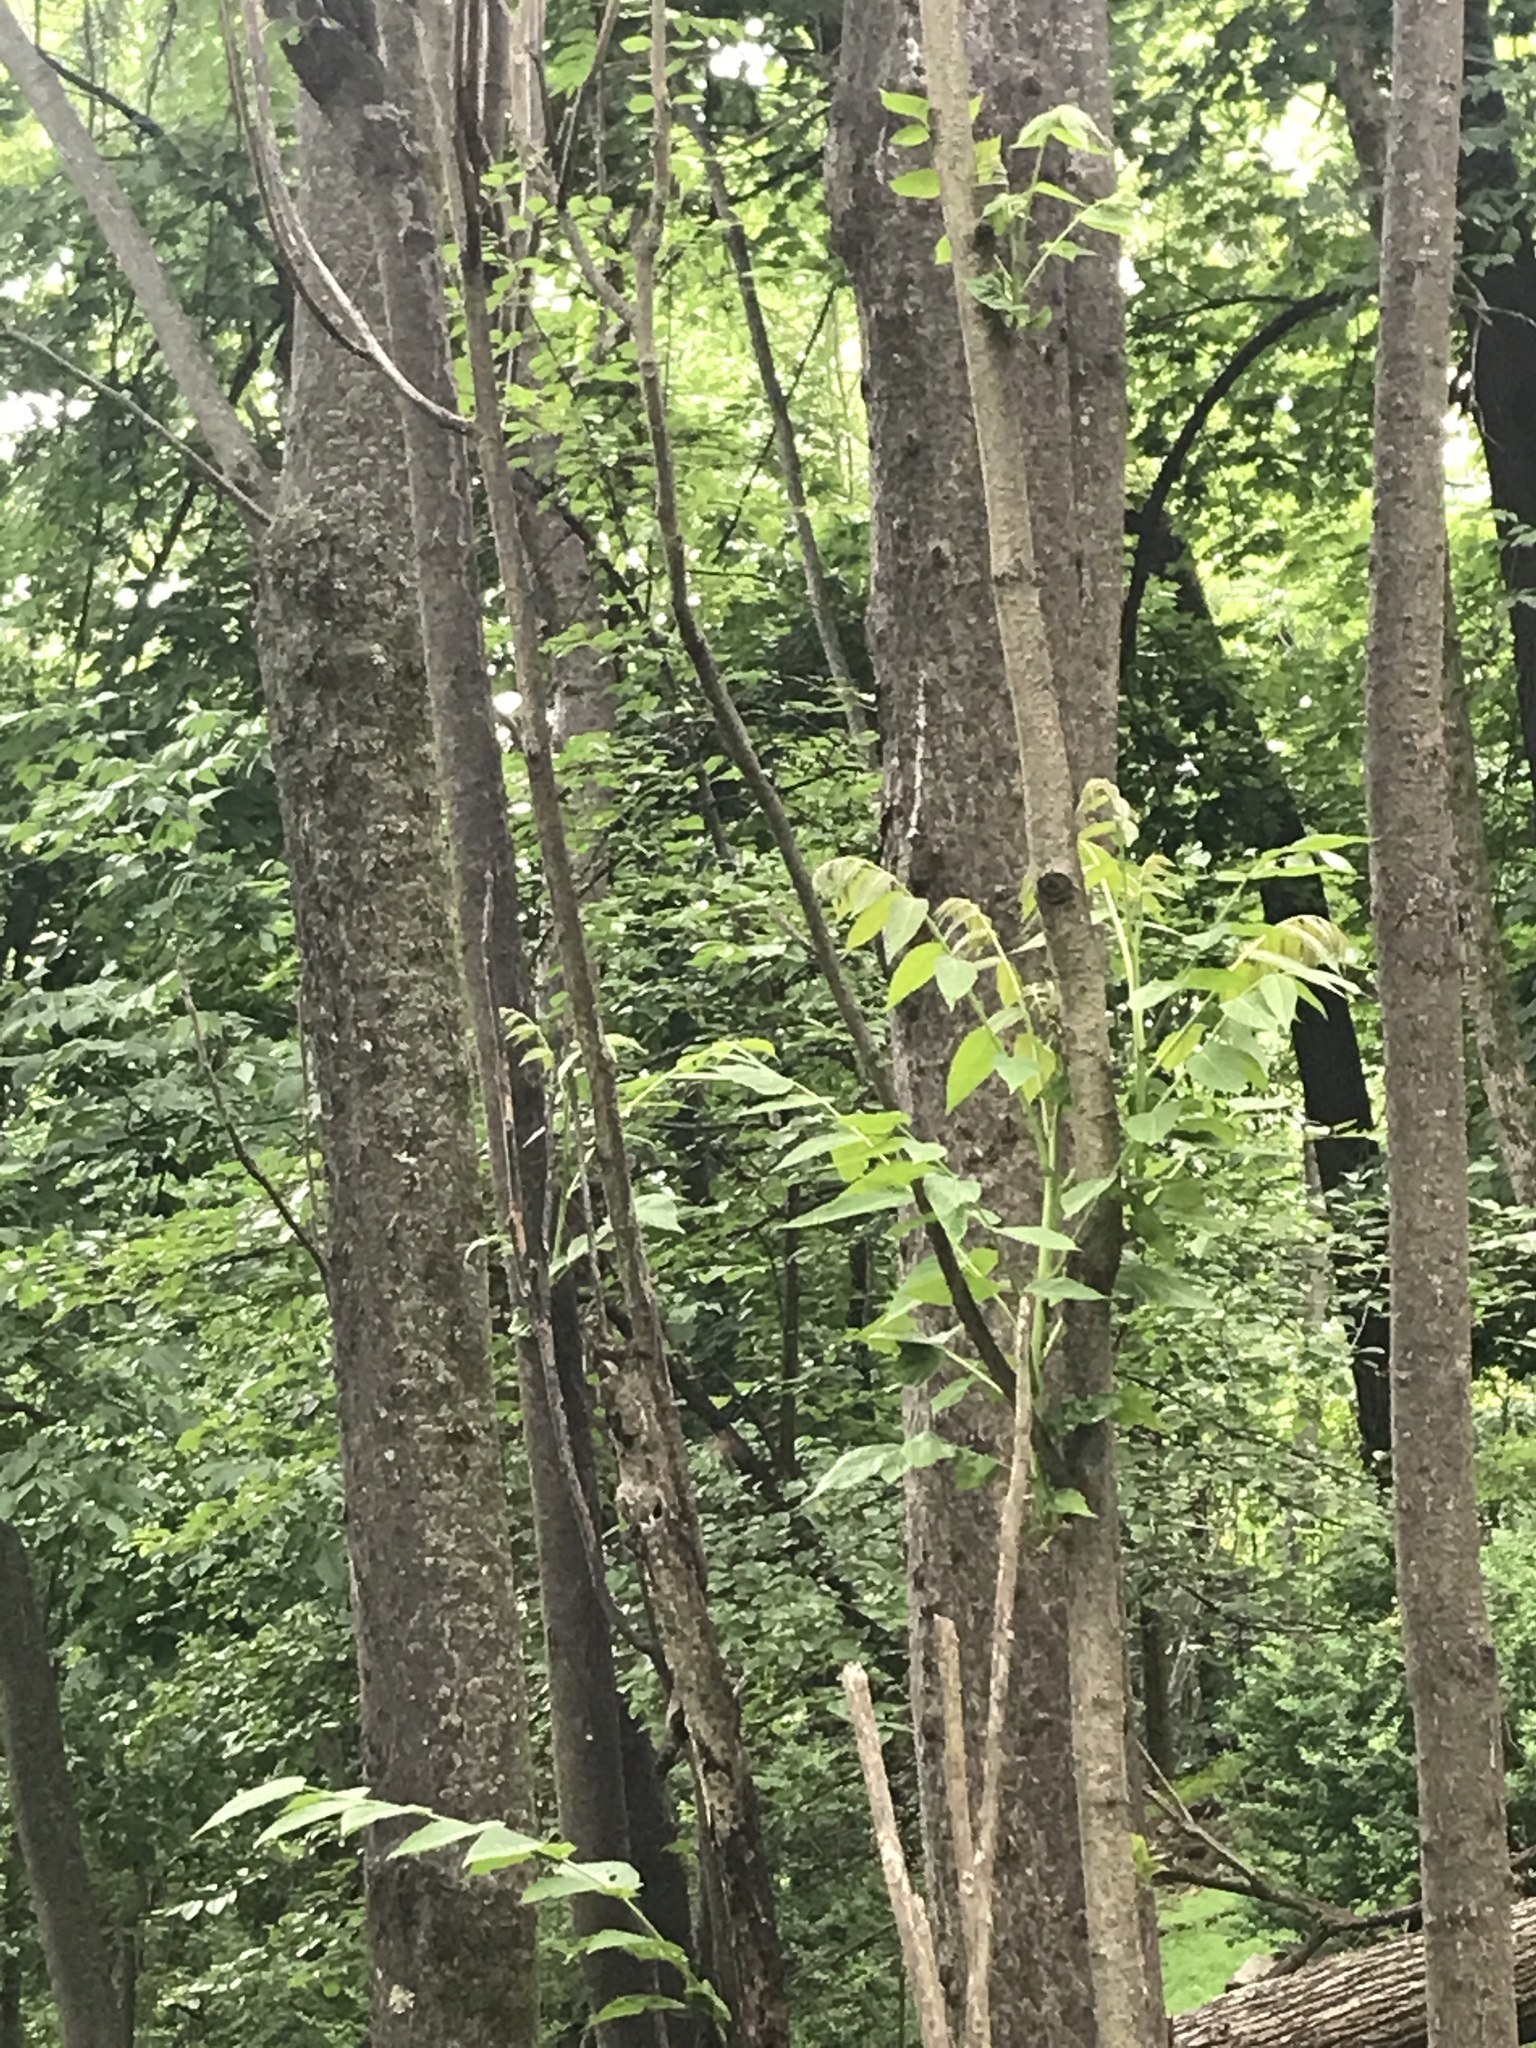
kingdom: Plantae
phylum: Tracheophyta
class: Magnoliopsida
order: Sapindales
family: Simaroubaceae
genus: Ailanthus
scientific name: Ailanthus altissima
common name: Tree-of-heaven
